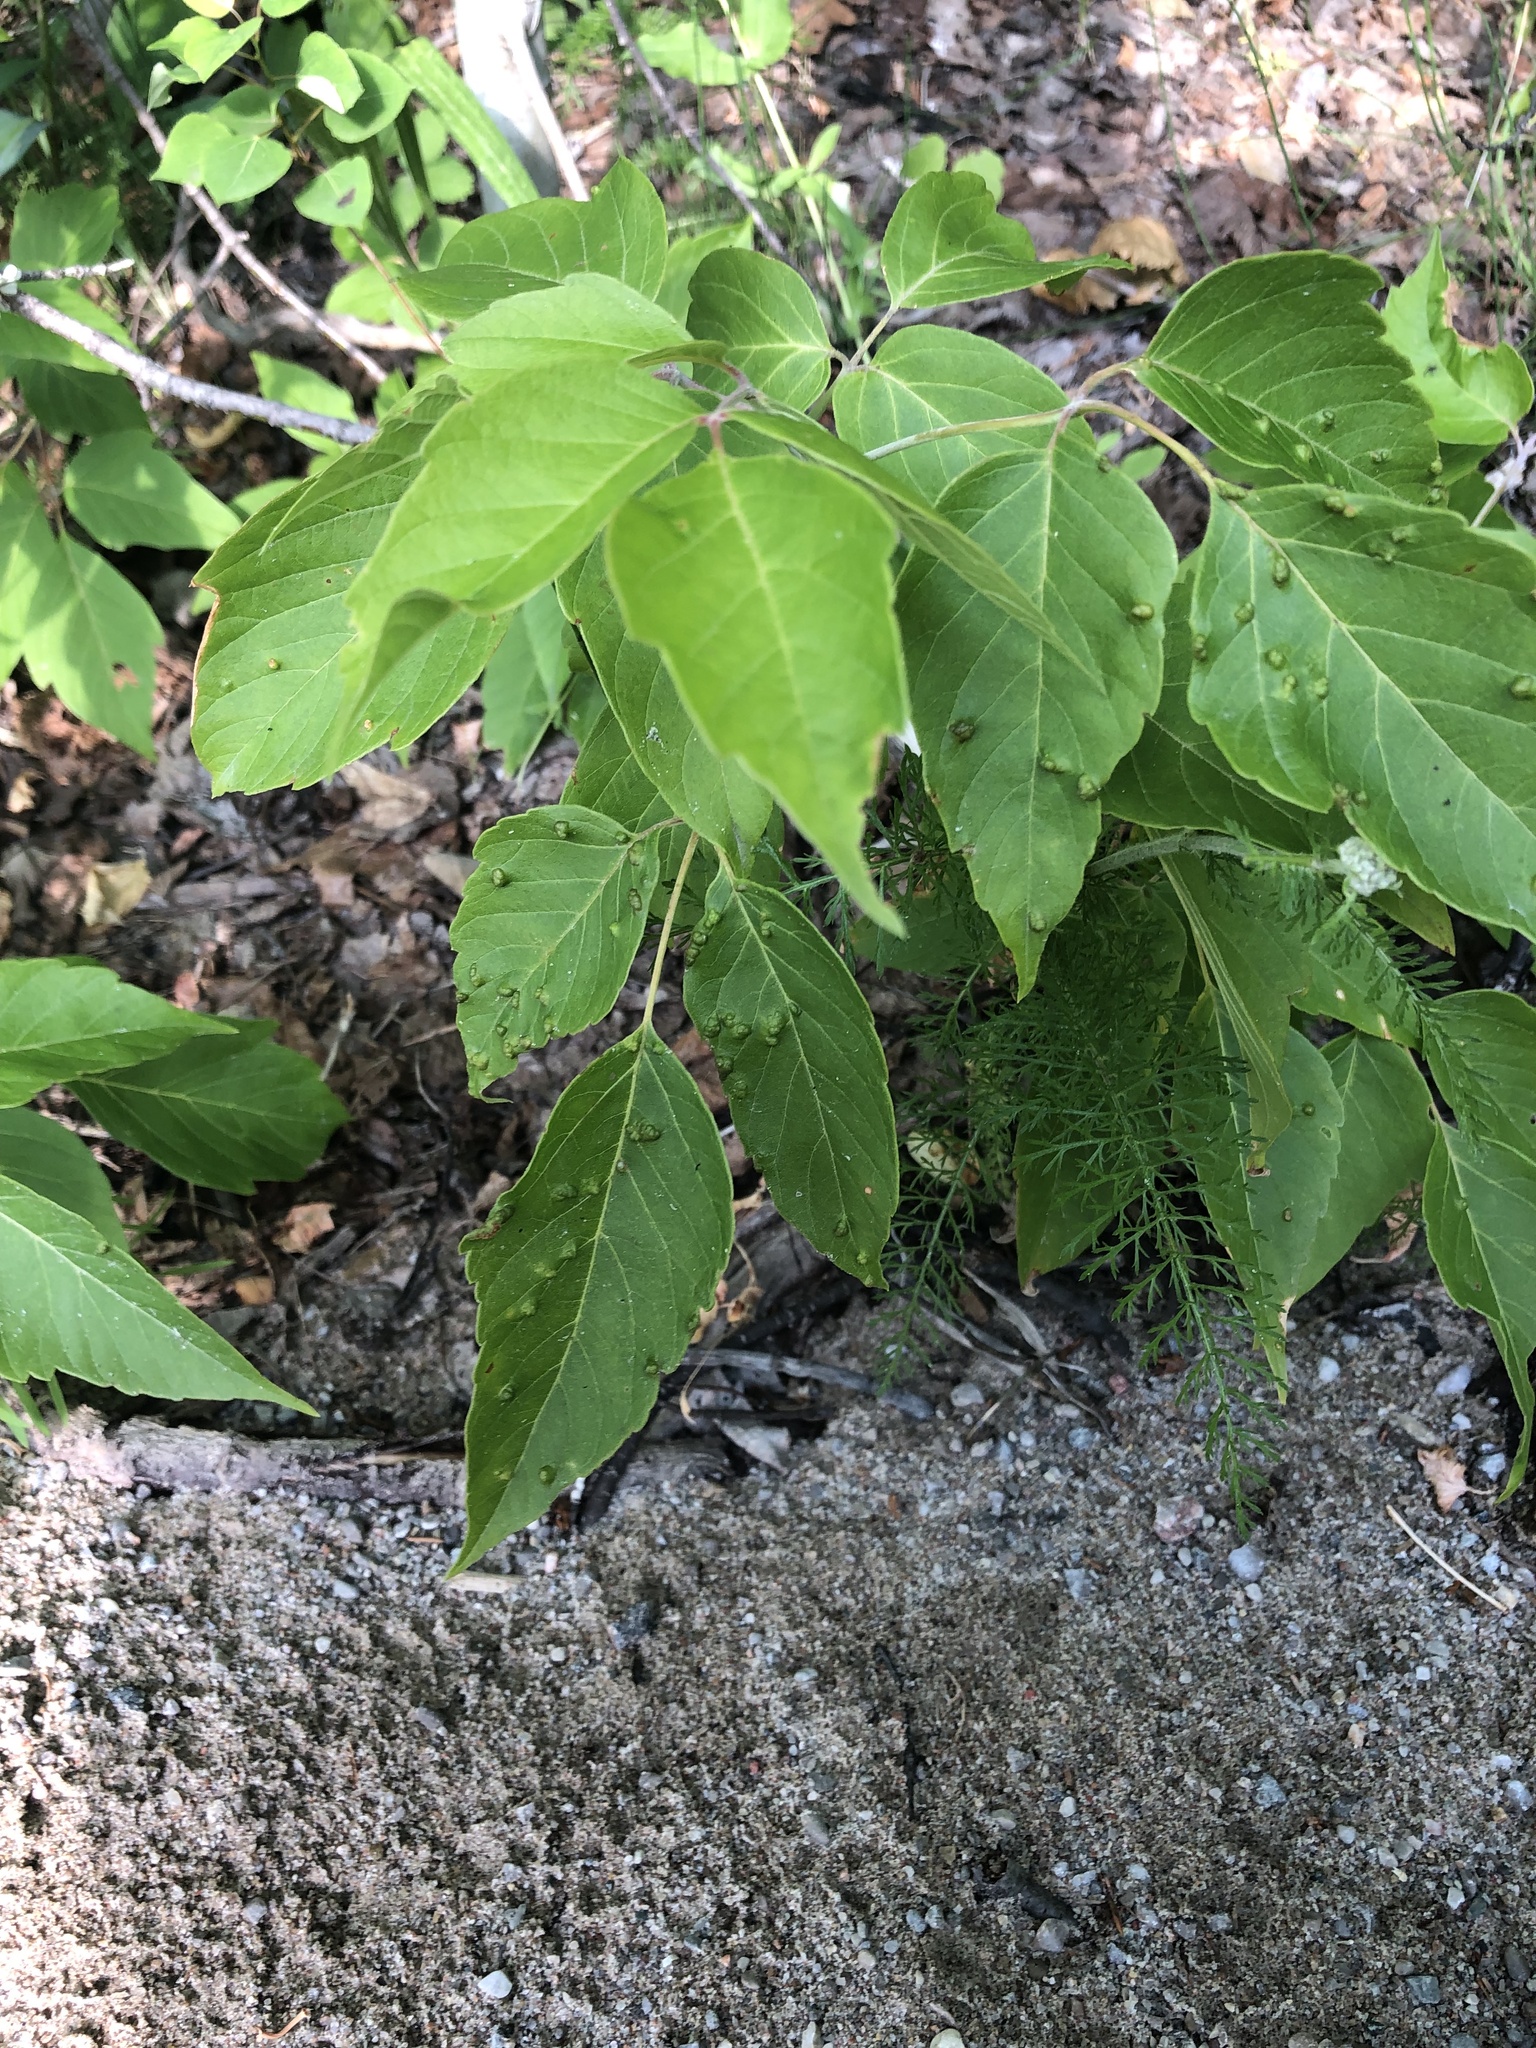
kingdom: Plantae
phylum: Tracheophyta
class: Magnoliopsida
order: Sapindales
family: Sapindaceae
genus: Acer
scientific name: Acer negundo
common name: Ashleaf maple
